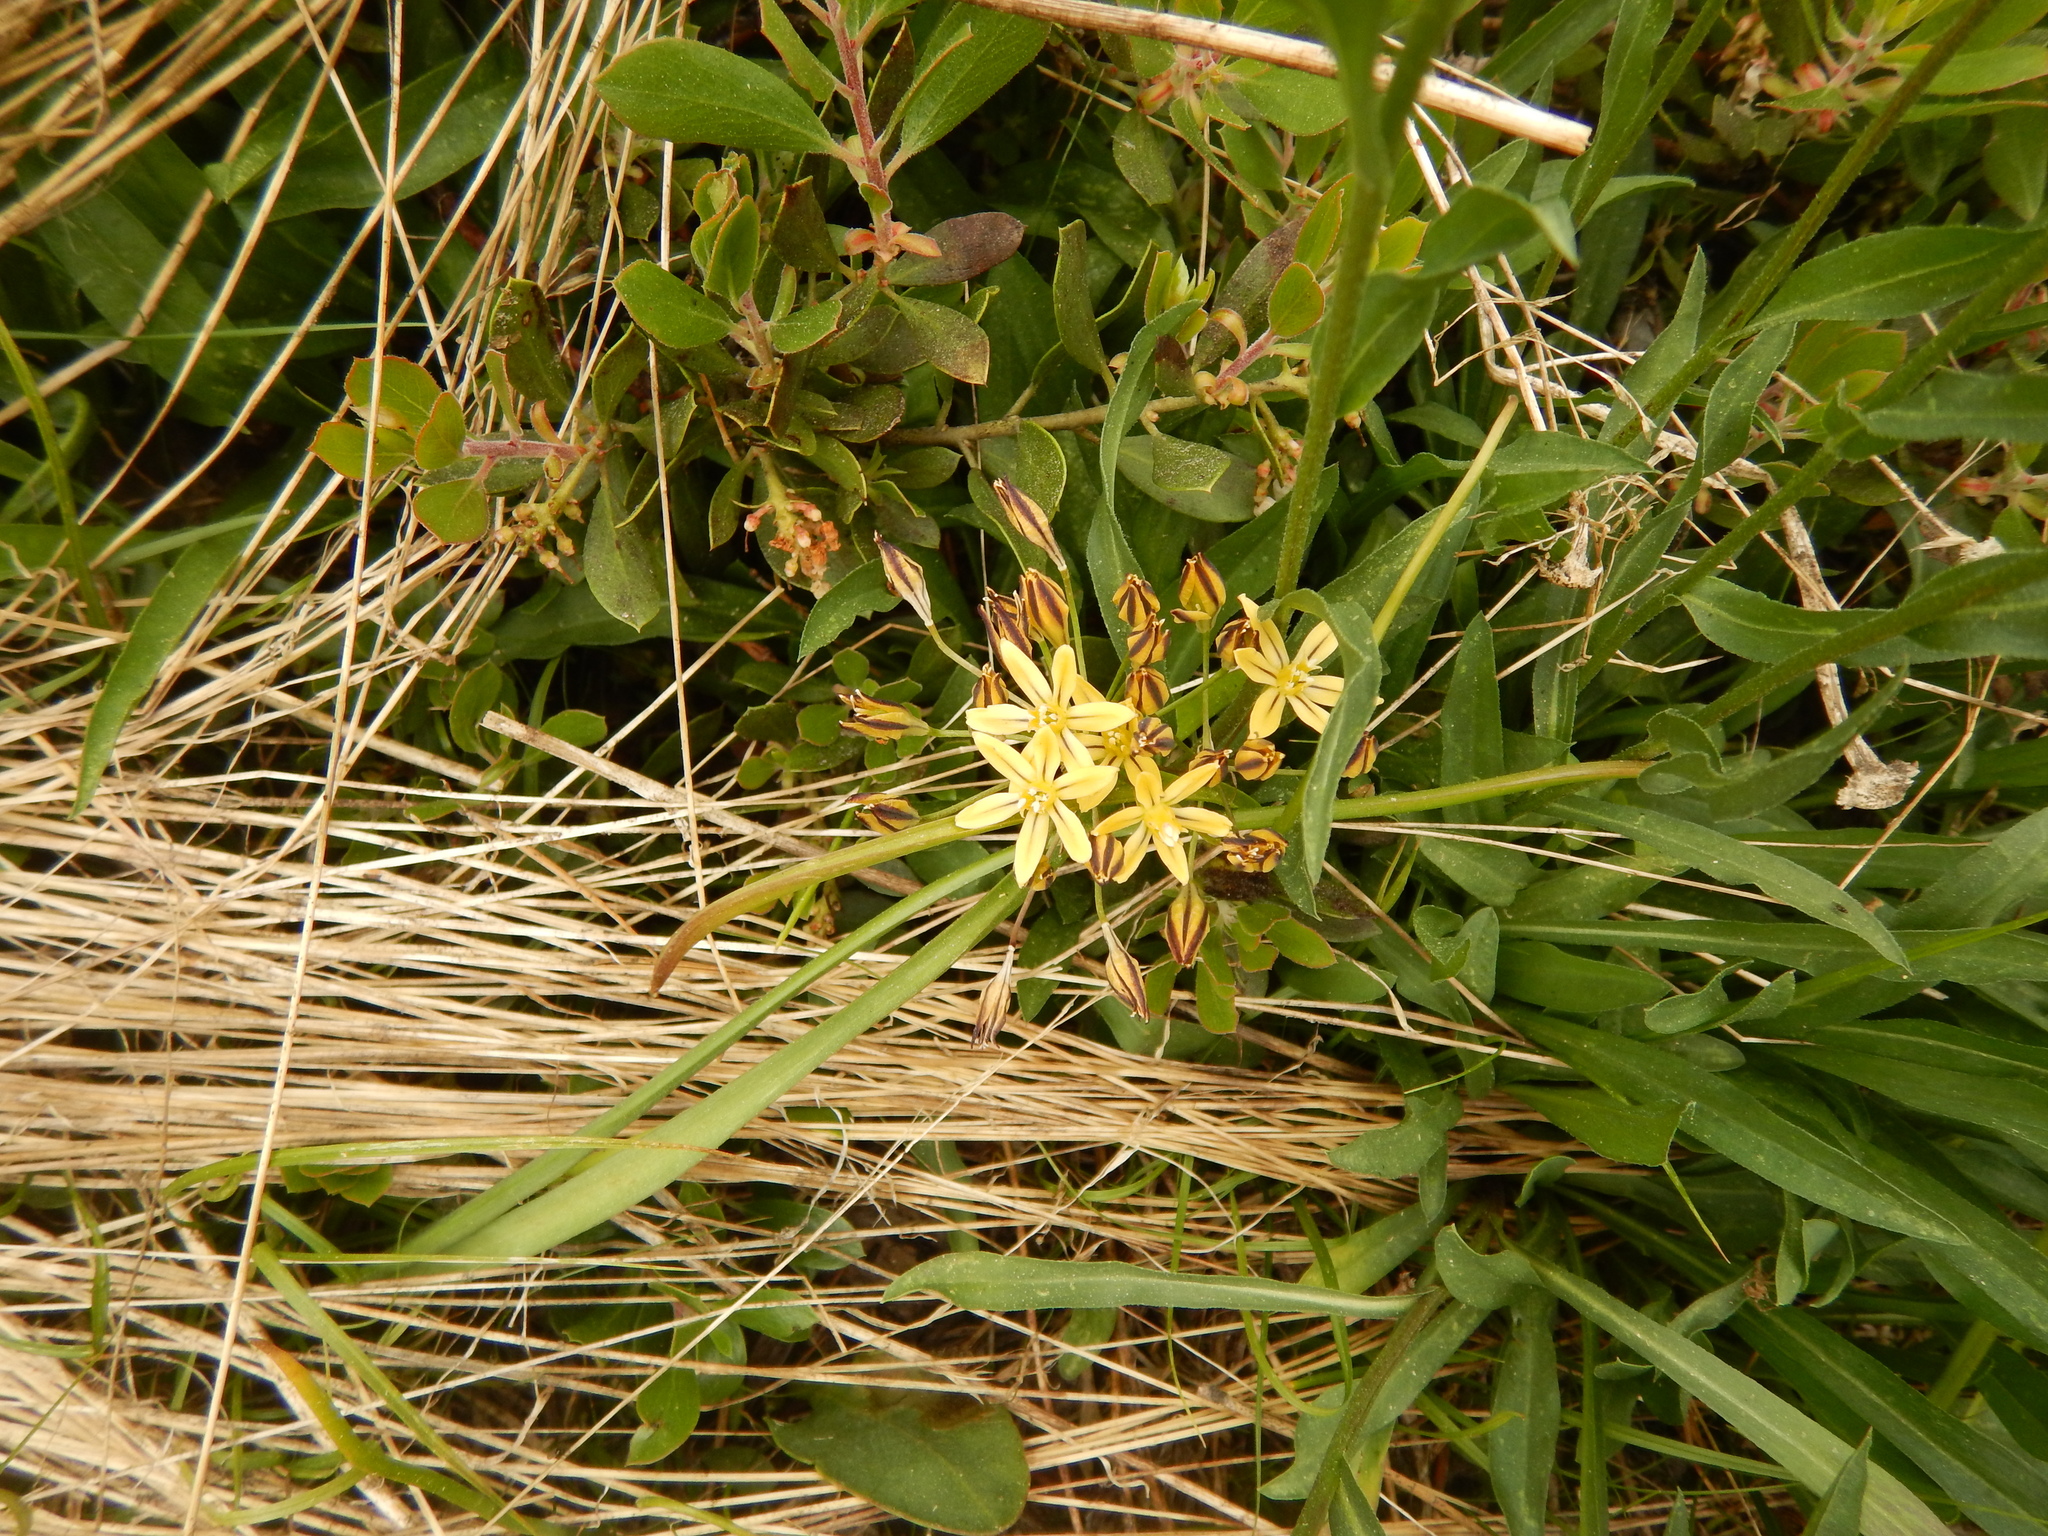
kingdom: Plantae
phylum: Tracheophyta
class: Liliopsida
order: Asparagales
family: Asparagaceae
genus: Triteleia
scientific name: Triteleia ixioides
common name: Yellow-brodiaea
